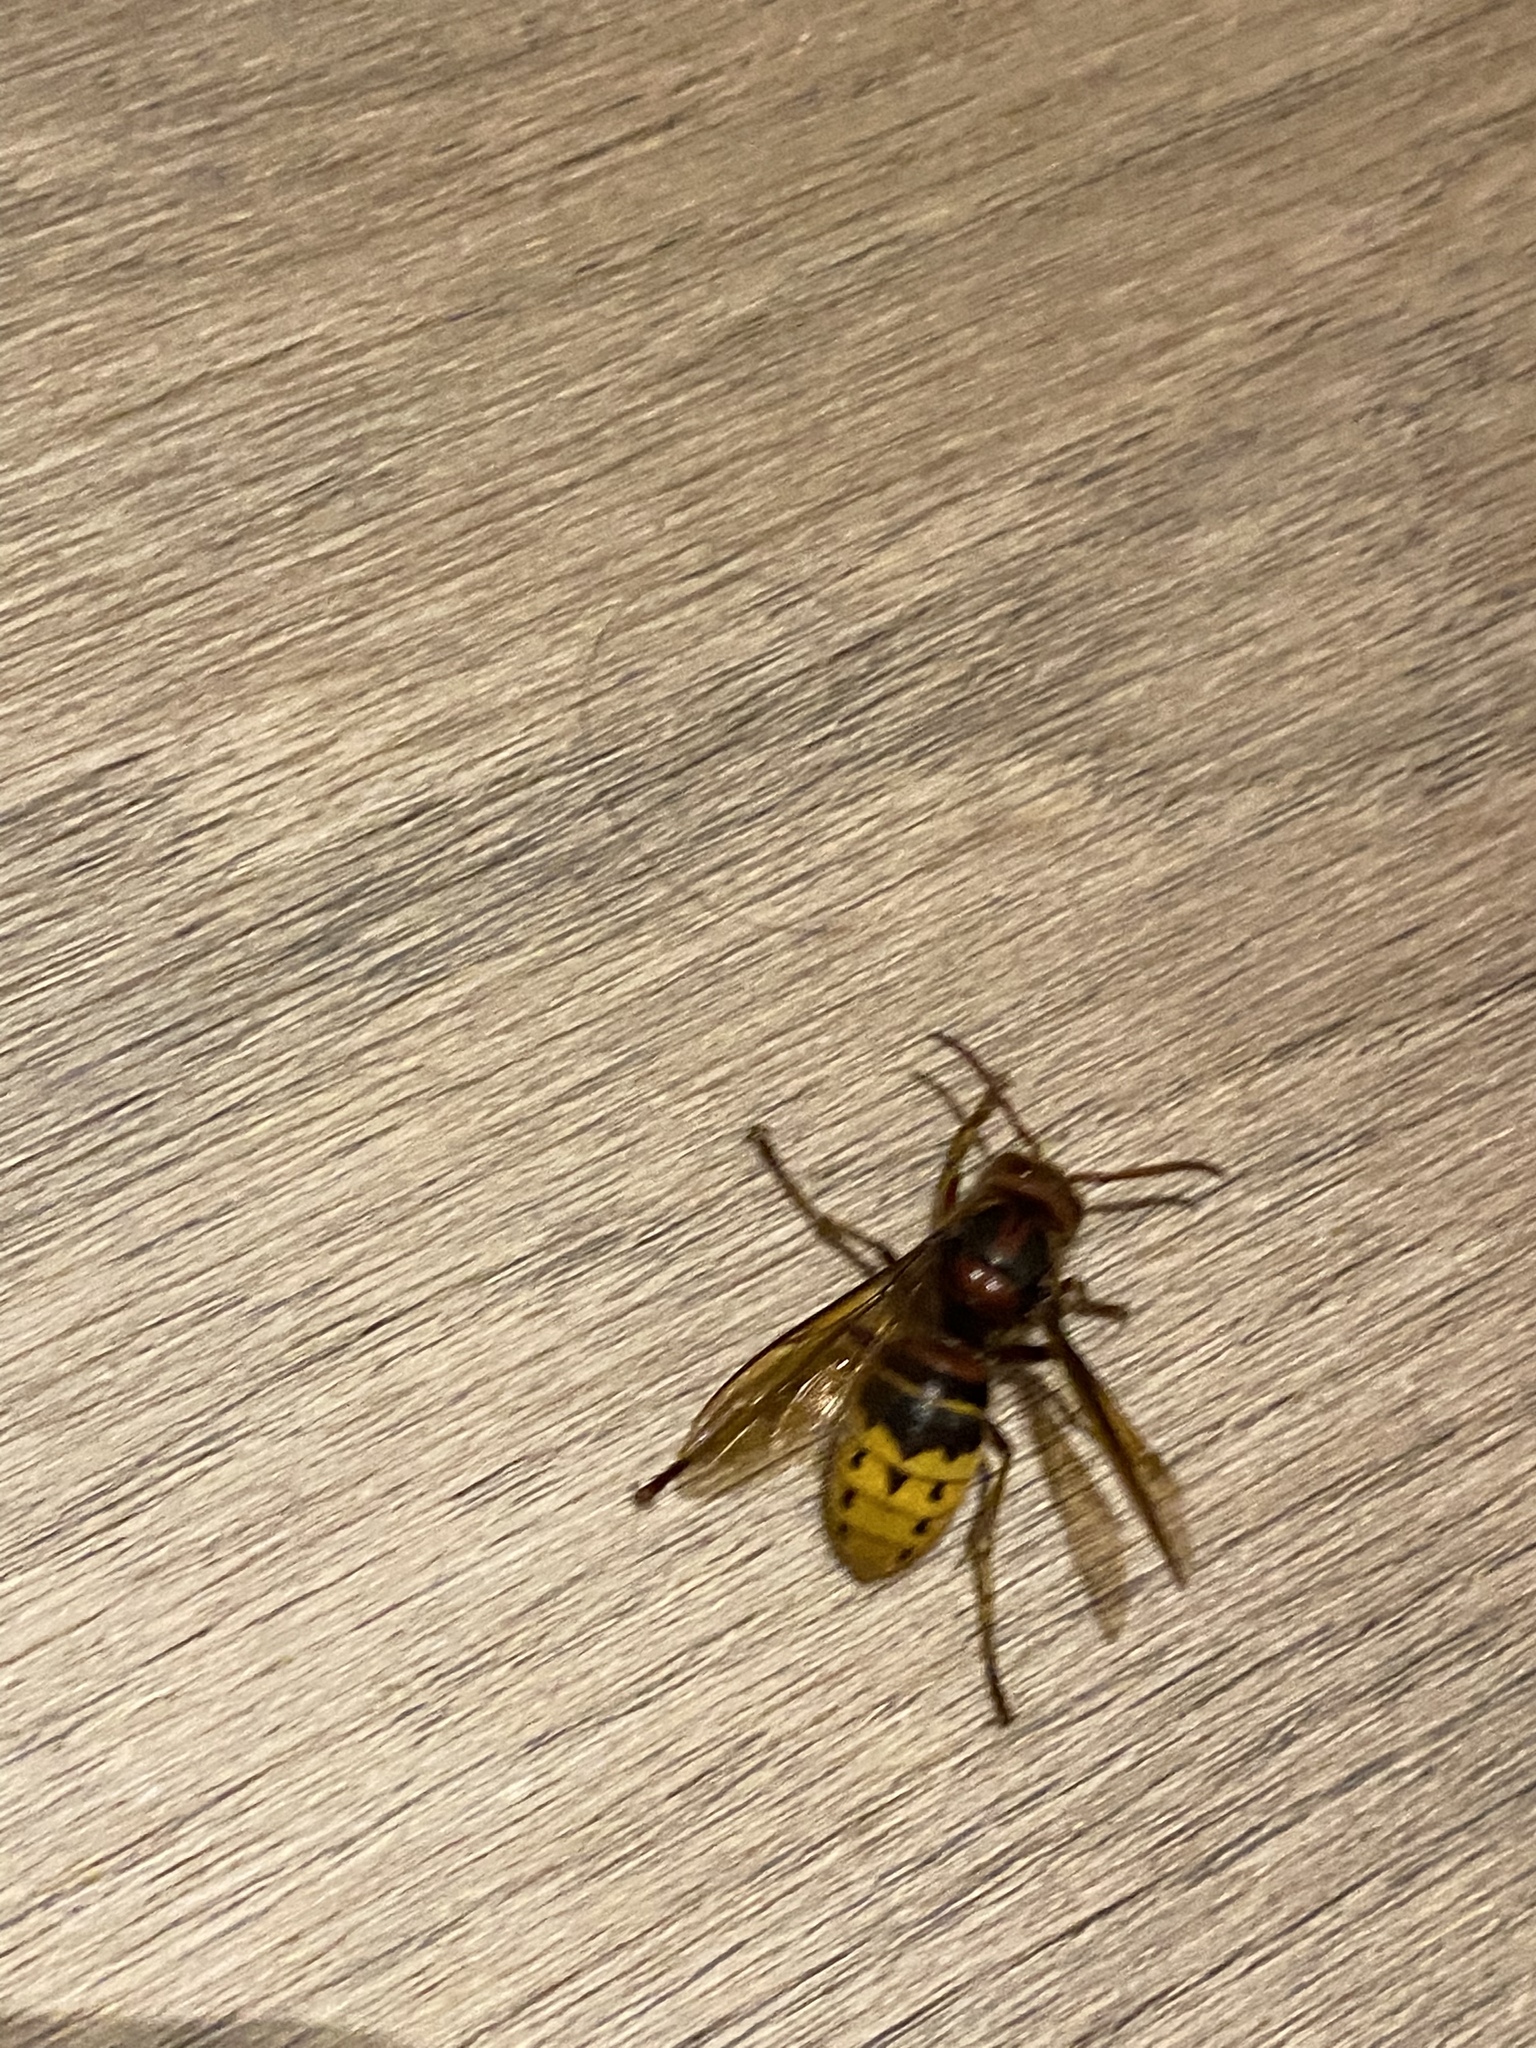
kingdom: Animalia
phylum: Arthropoda
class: Insecta
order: Hymenoptera
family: Vespidae
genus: Vespa
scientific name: Vespa crabro
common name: Hornet
